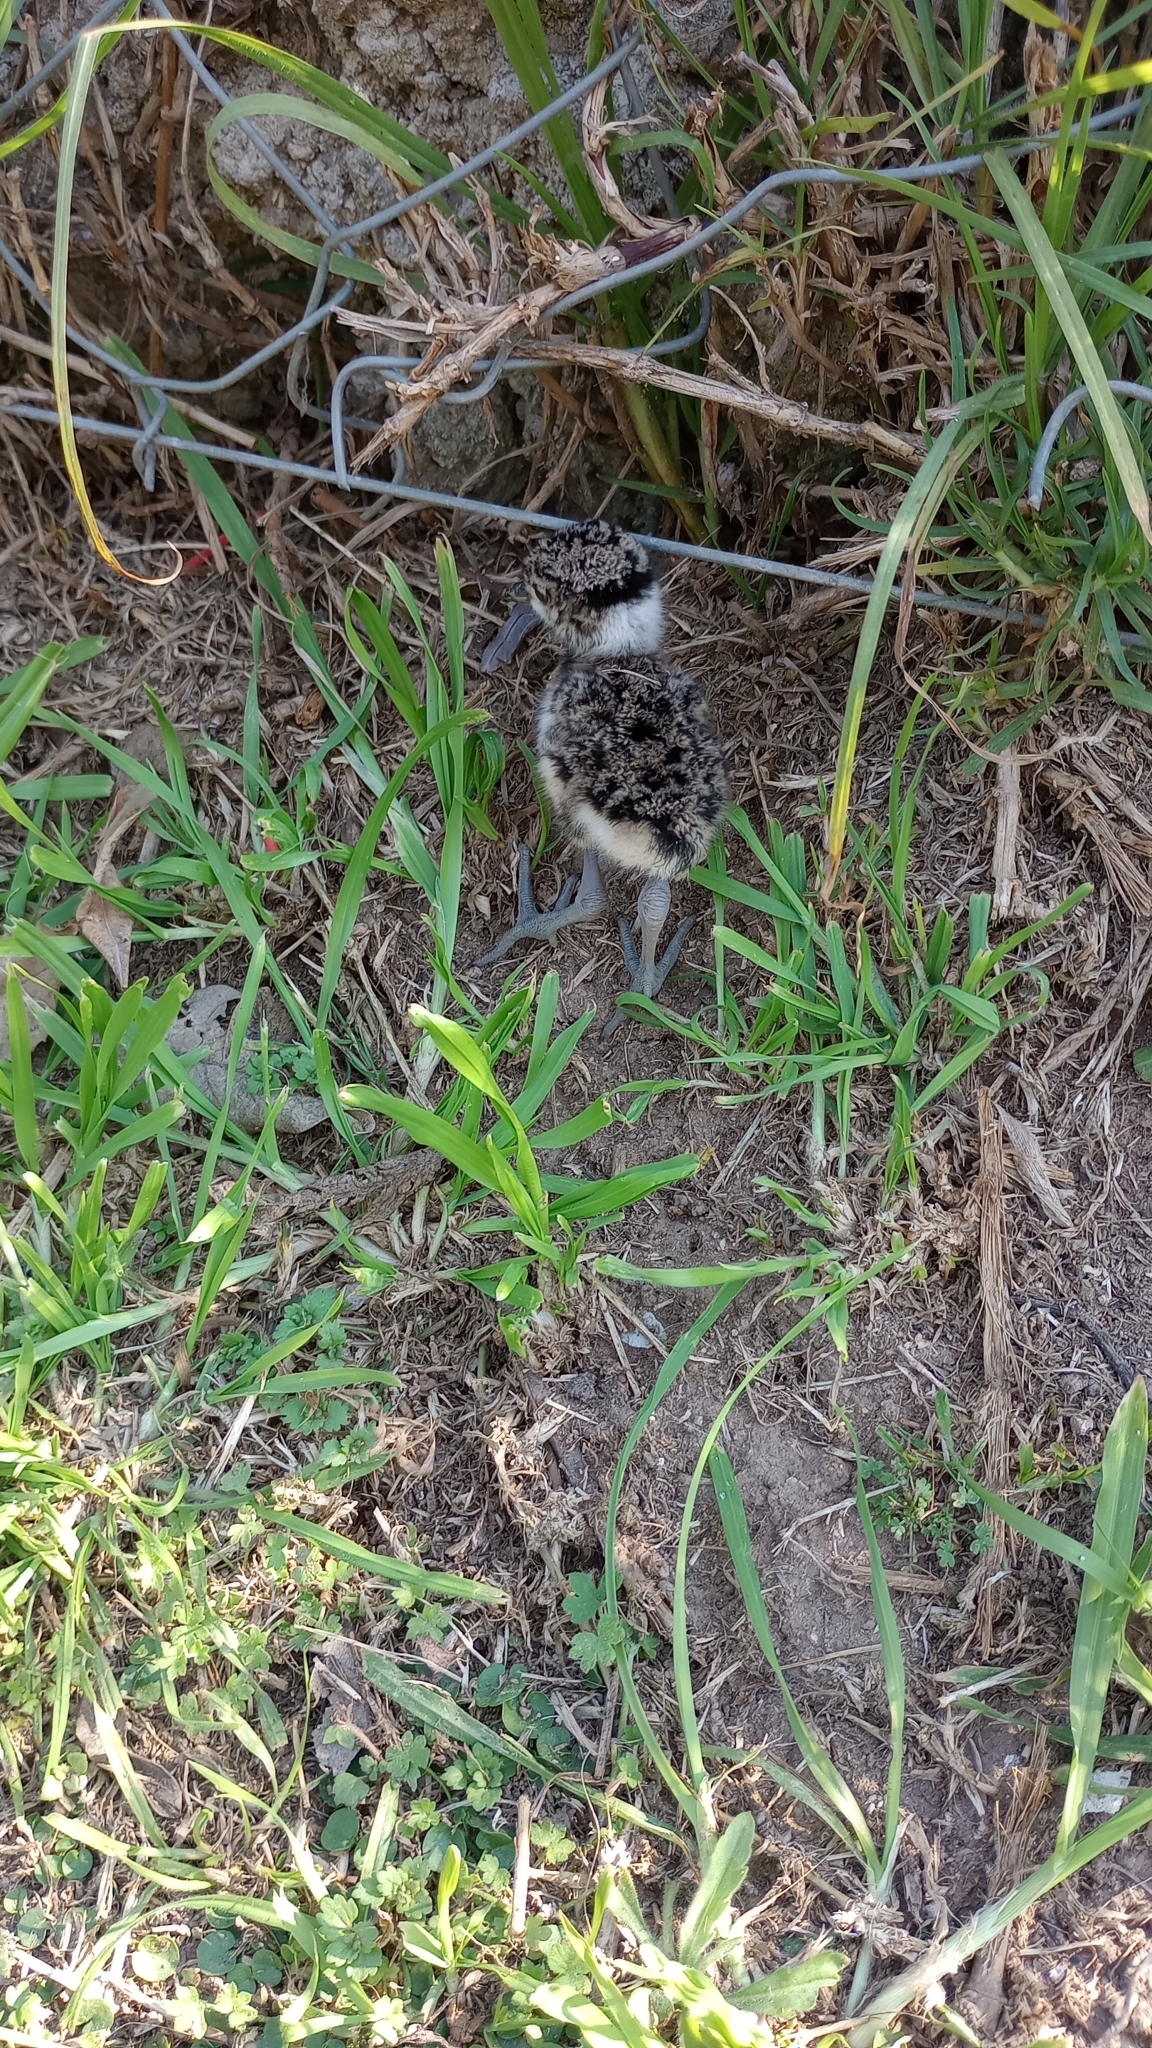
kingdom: Animalia
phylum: Chordata
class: Aves
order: Charadriiformes
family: Charadriidae
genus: Vanellus
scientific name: Vanellus chilensis
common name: Southern lapwing
